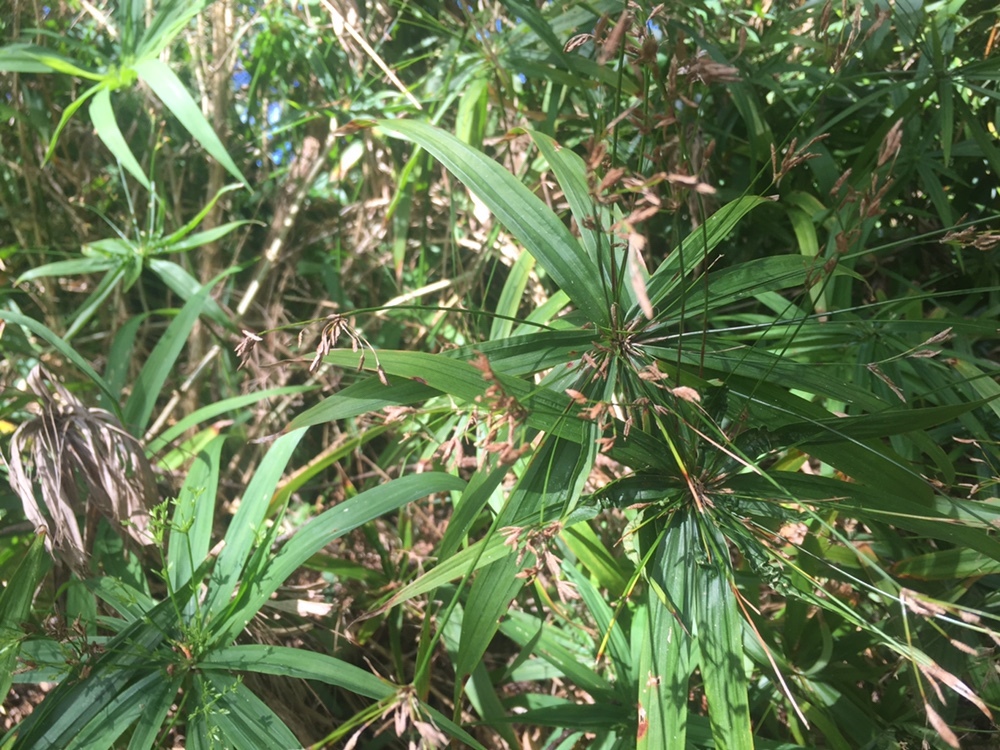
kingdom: Plantae
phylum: Tracheophyta
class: Liliopsida
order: Poales
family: Cyperaceae
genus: Cyperus
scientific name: Cyperus albostriatus
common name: Dwarf umbrella-grass
